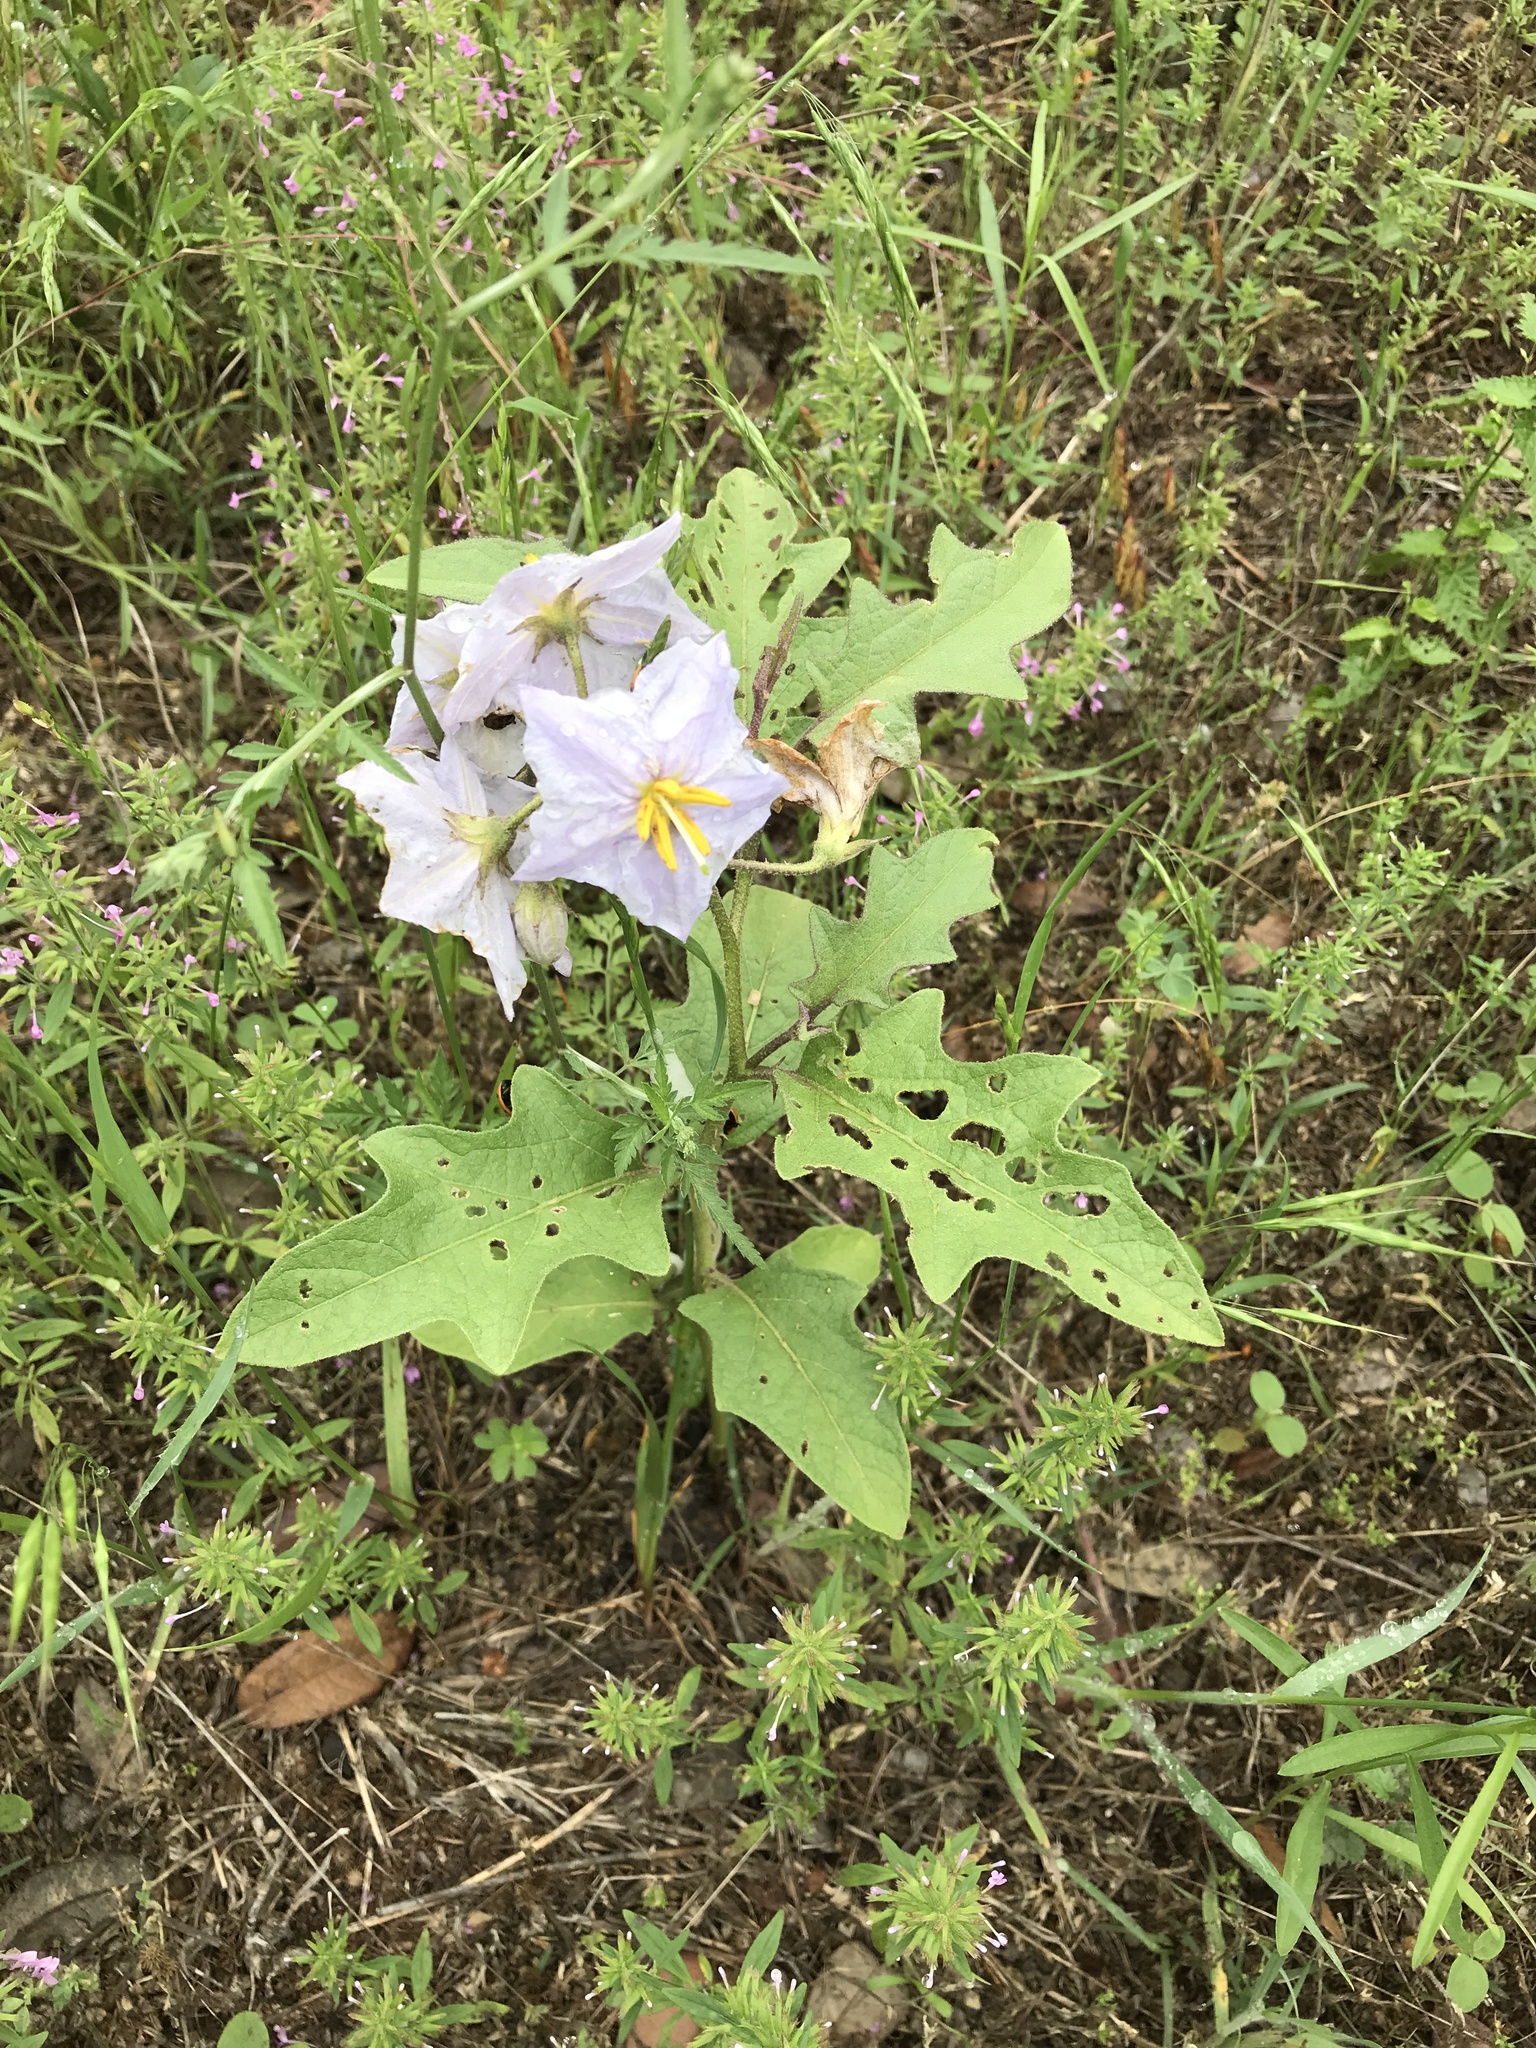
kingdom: Plantae
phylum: Tracheophyta
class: Magnoliopsida
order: Solanales
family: Solanaceae
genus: Solanum
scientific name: Solanum dimidiatum
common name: Carolina horse-nettle
